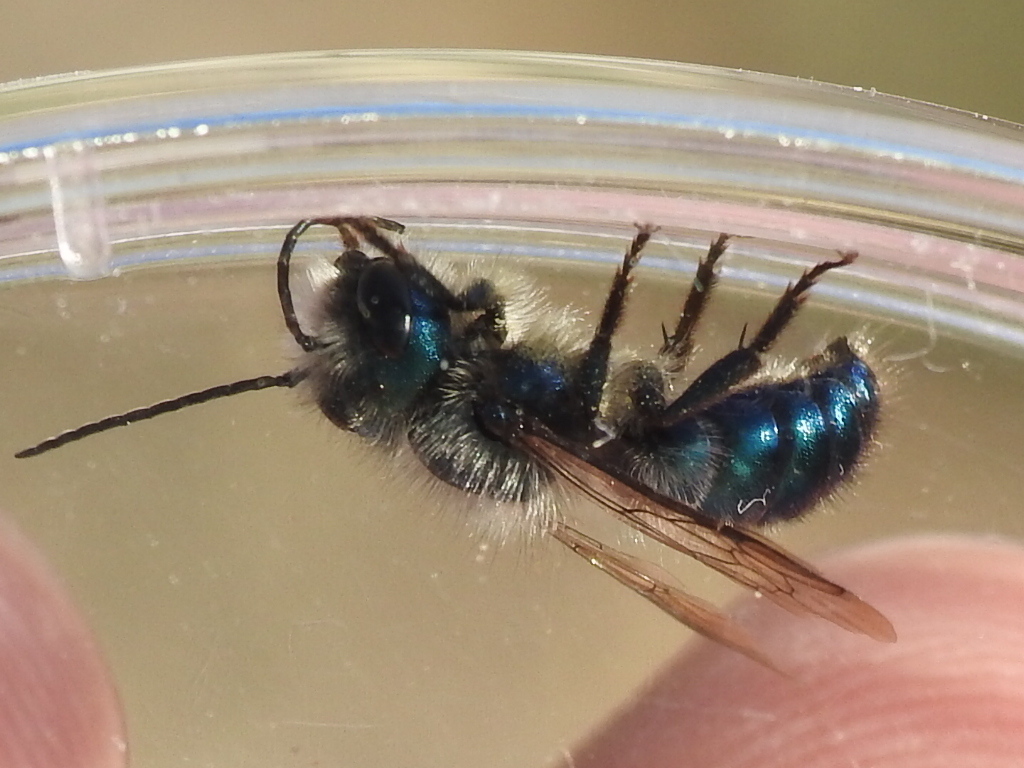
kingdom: Animalia
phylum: Arthropoda
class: Insecta
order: Hymenoptera
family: Megachilidae
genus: Osmia
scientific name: Osmia ribifloris
